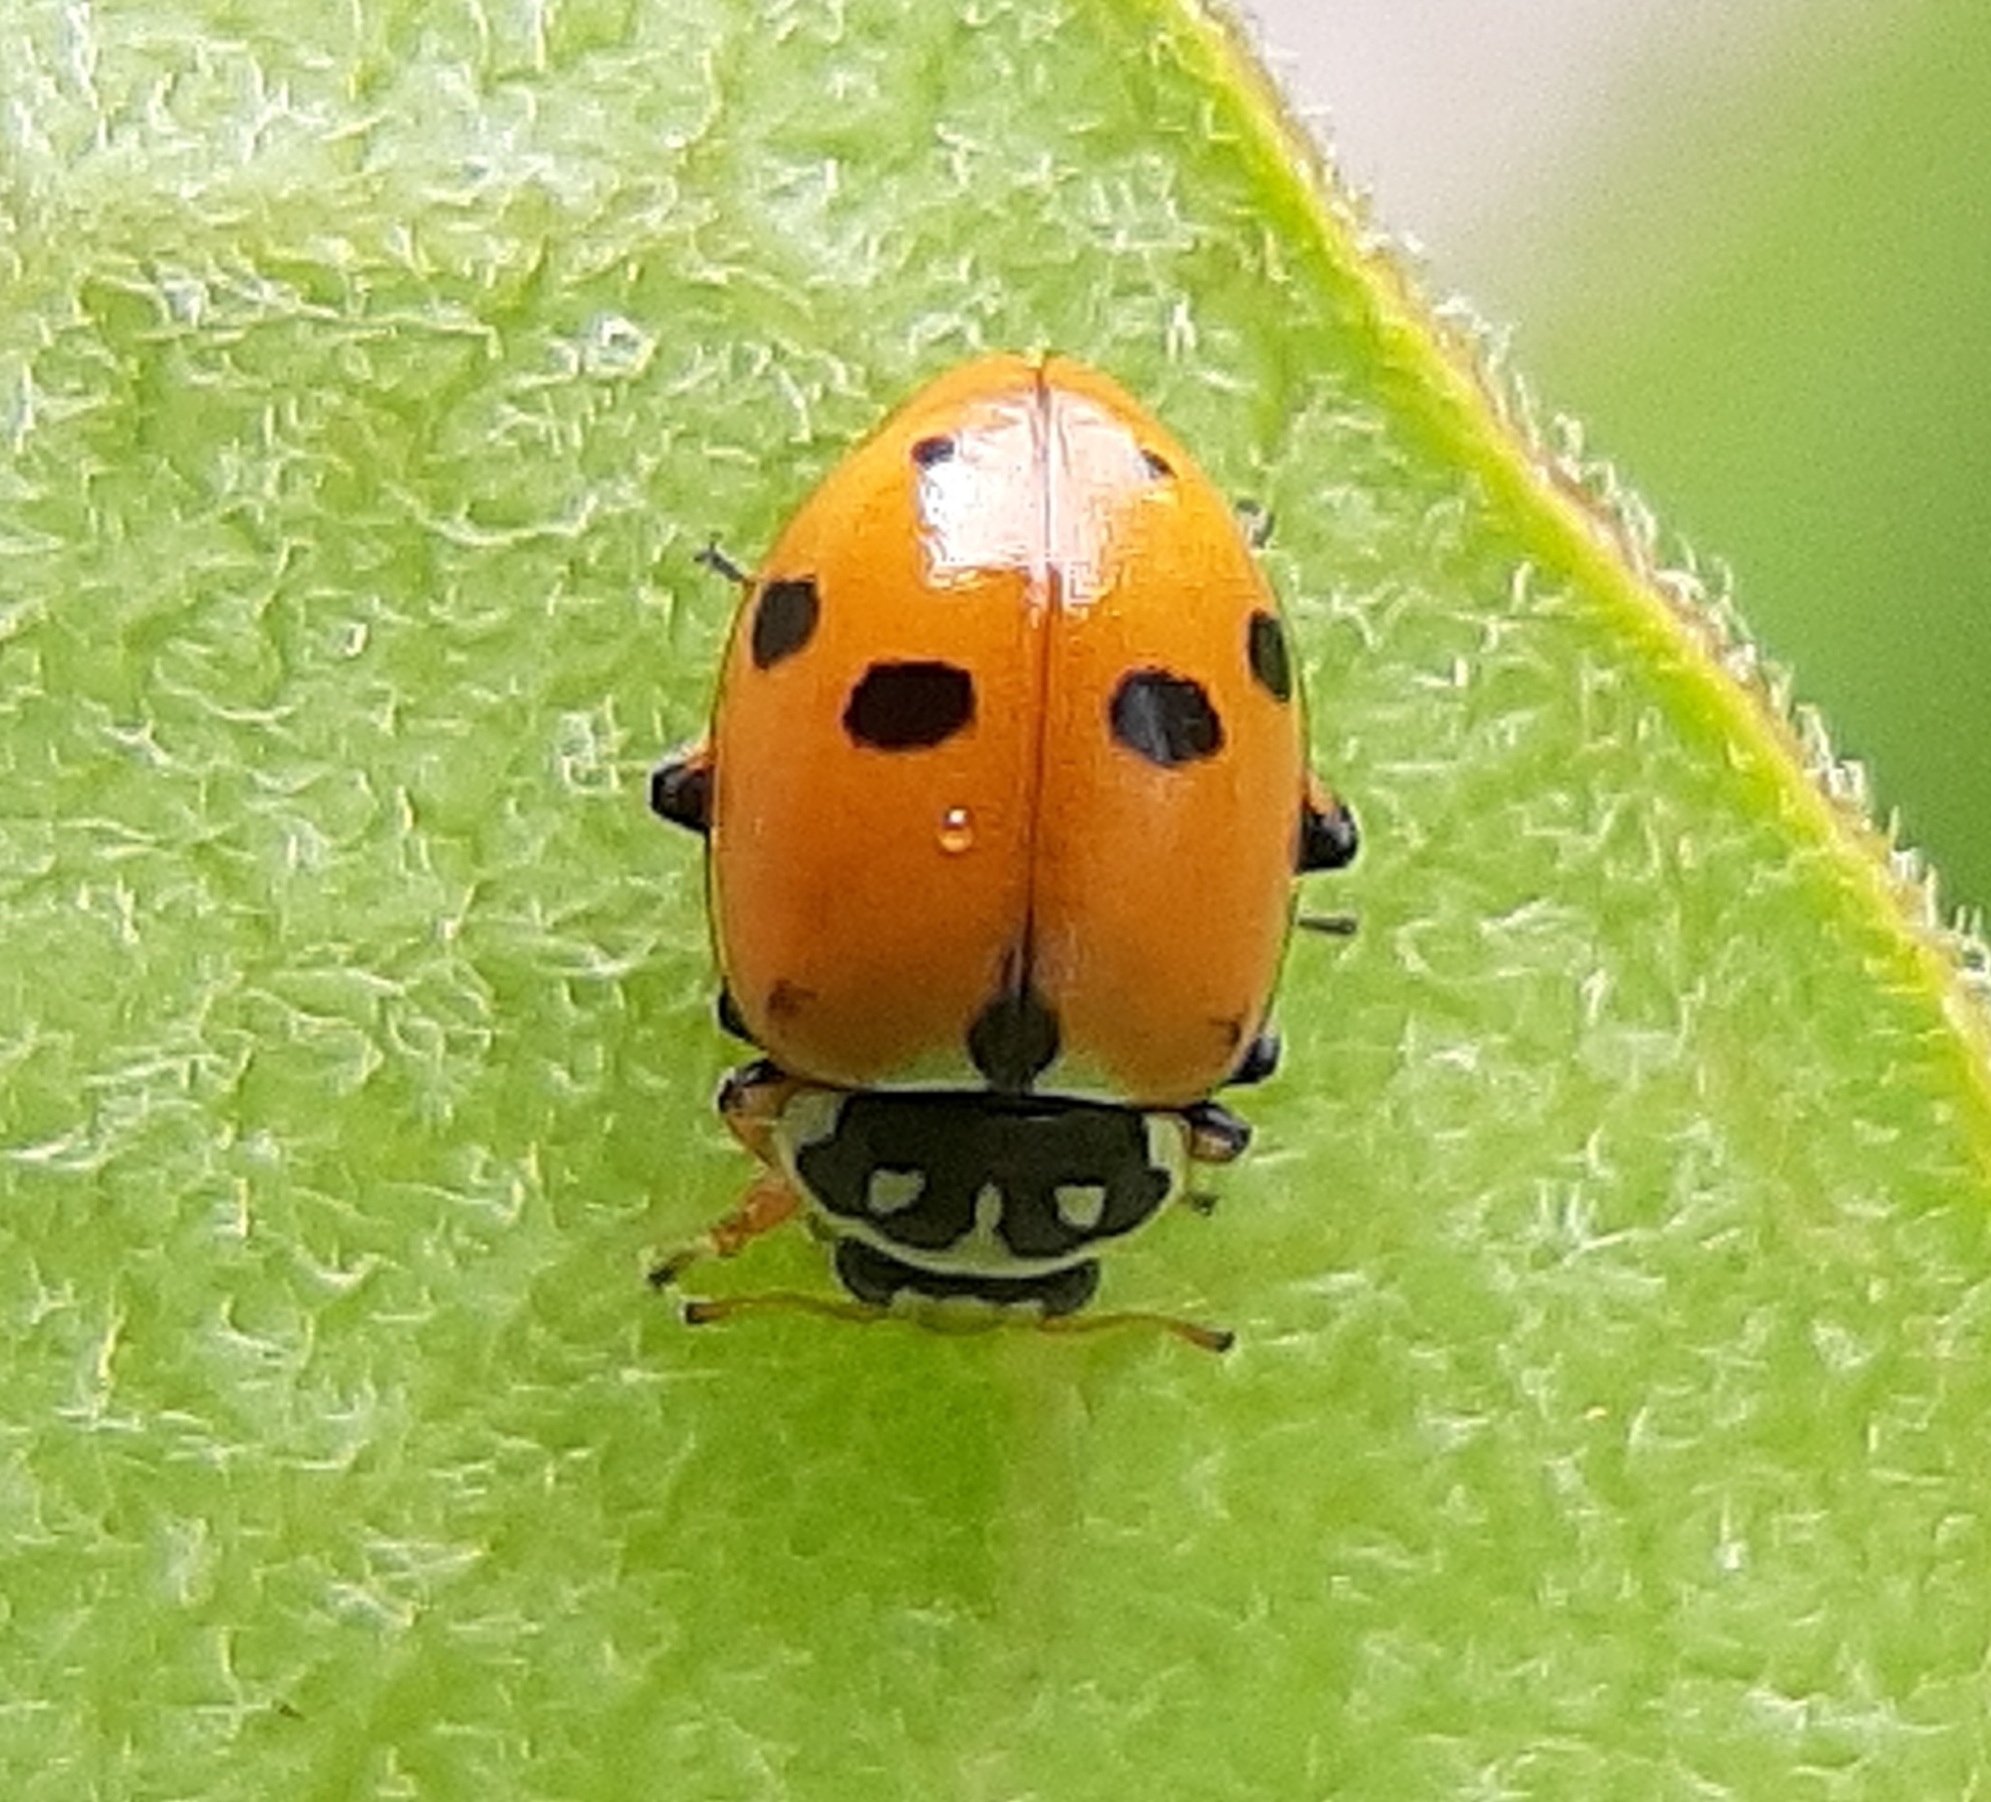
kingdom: Animalia
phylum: Arthropoda
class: Insecta
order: Coleoptera
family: Coccinellidae
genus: Hippodamia
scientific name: Hippodamia variegata
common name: Ladybird beetle
